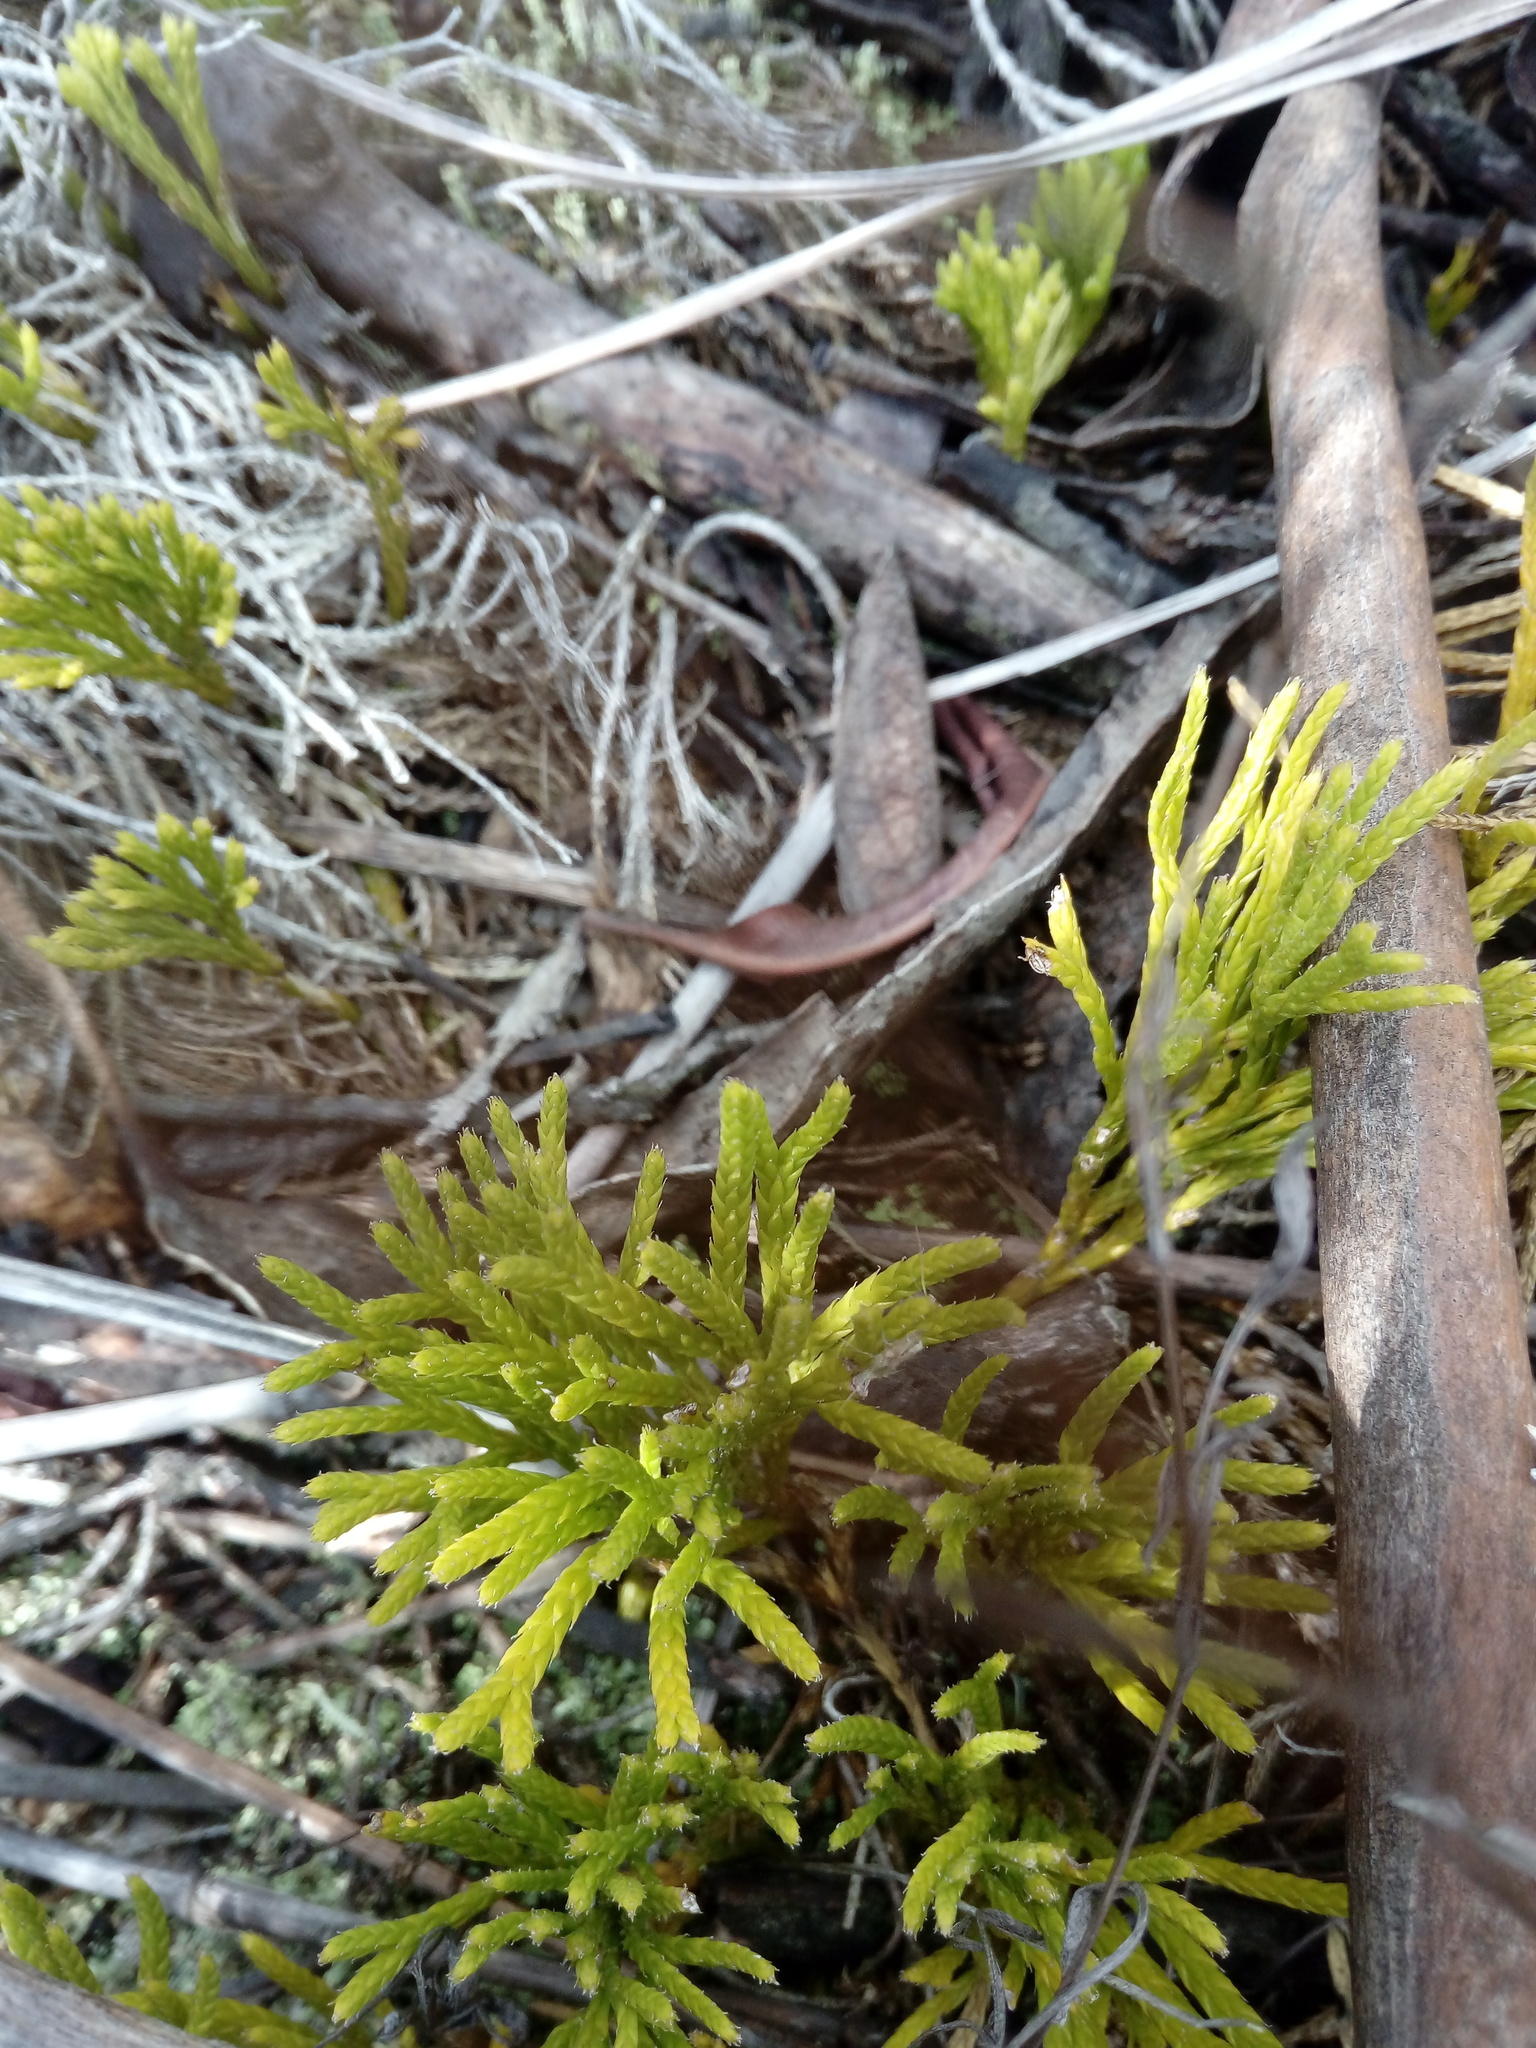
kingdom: Plantae
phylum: Tracheophyta
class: Lycopodiopsida
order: Lycopodiales
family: Lycopodiaceae
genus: Diphasiastrum
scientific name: Diphasiastrum thyoides
